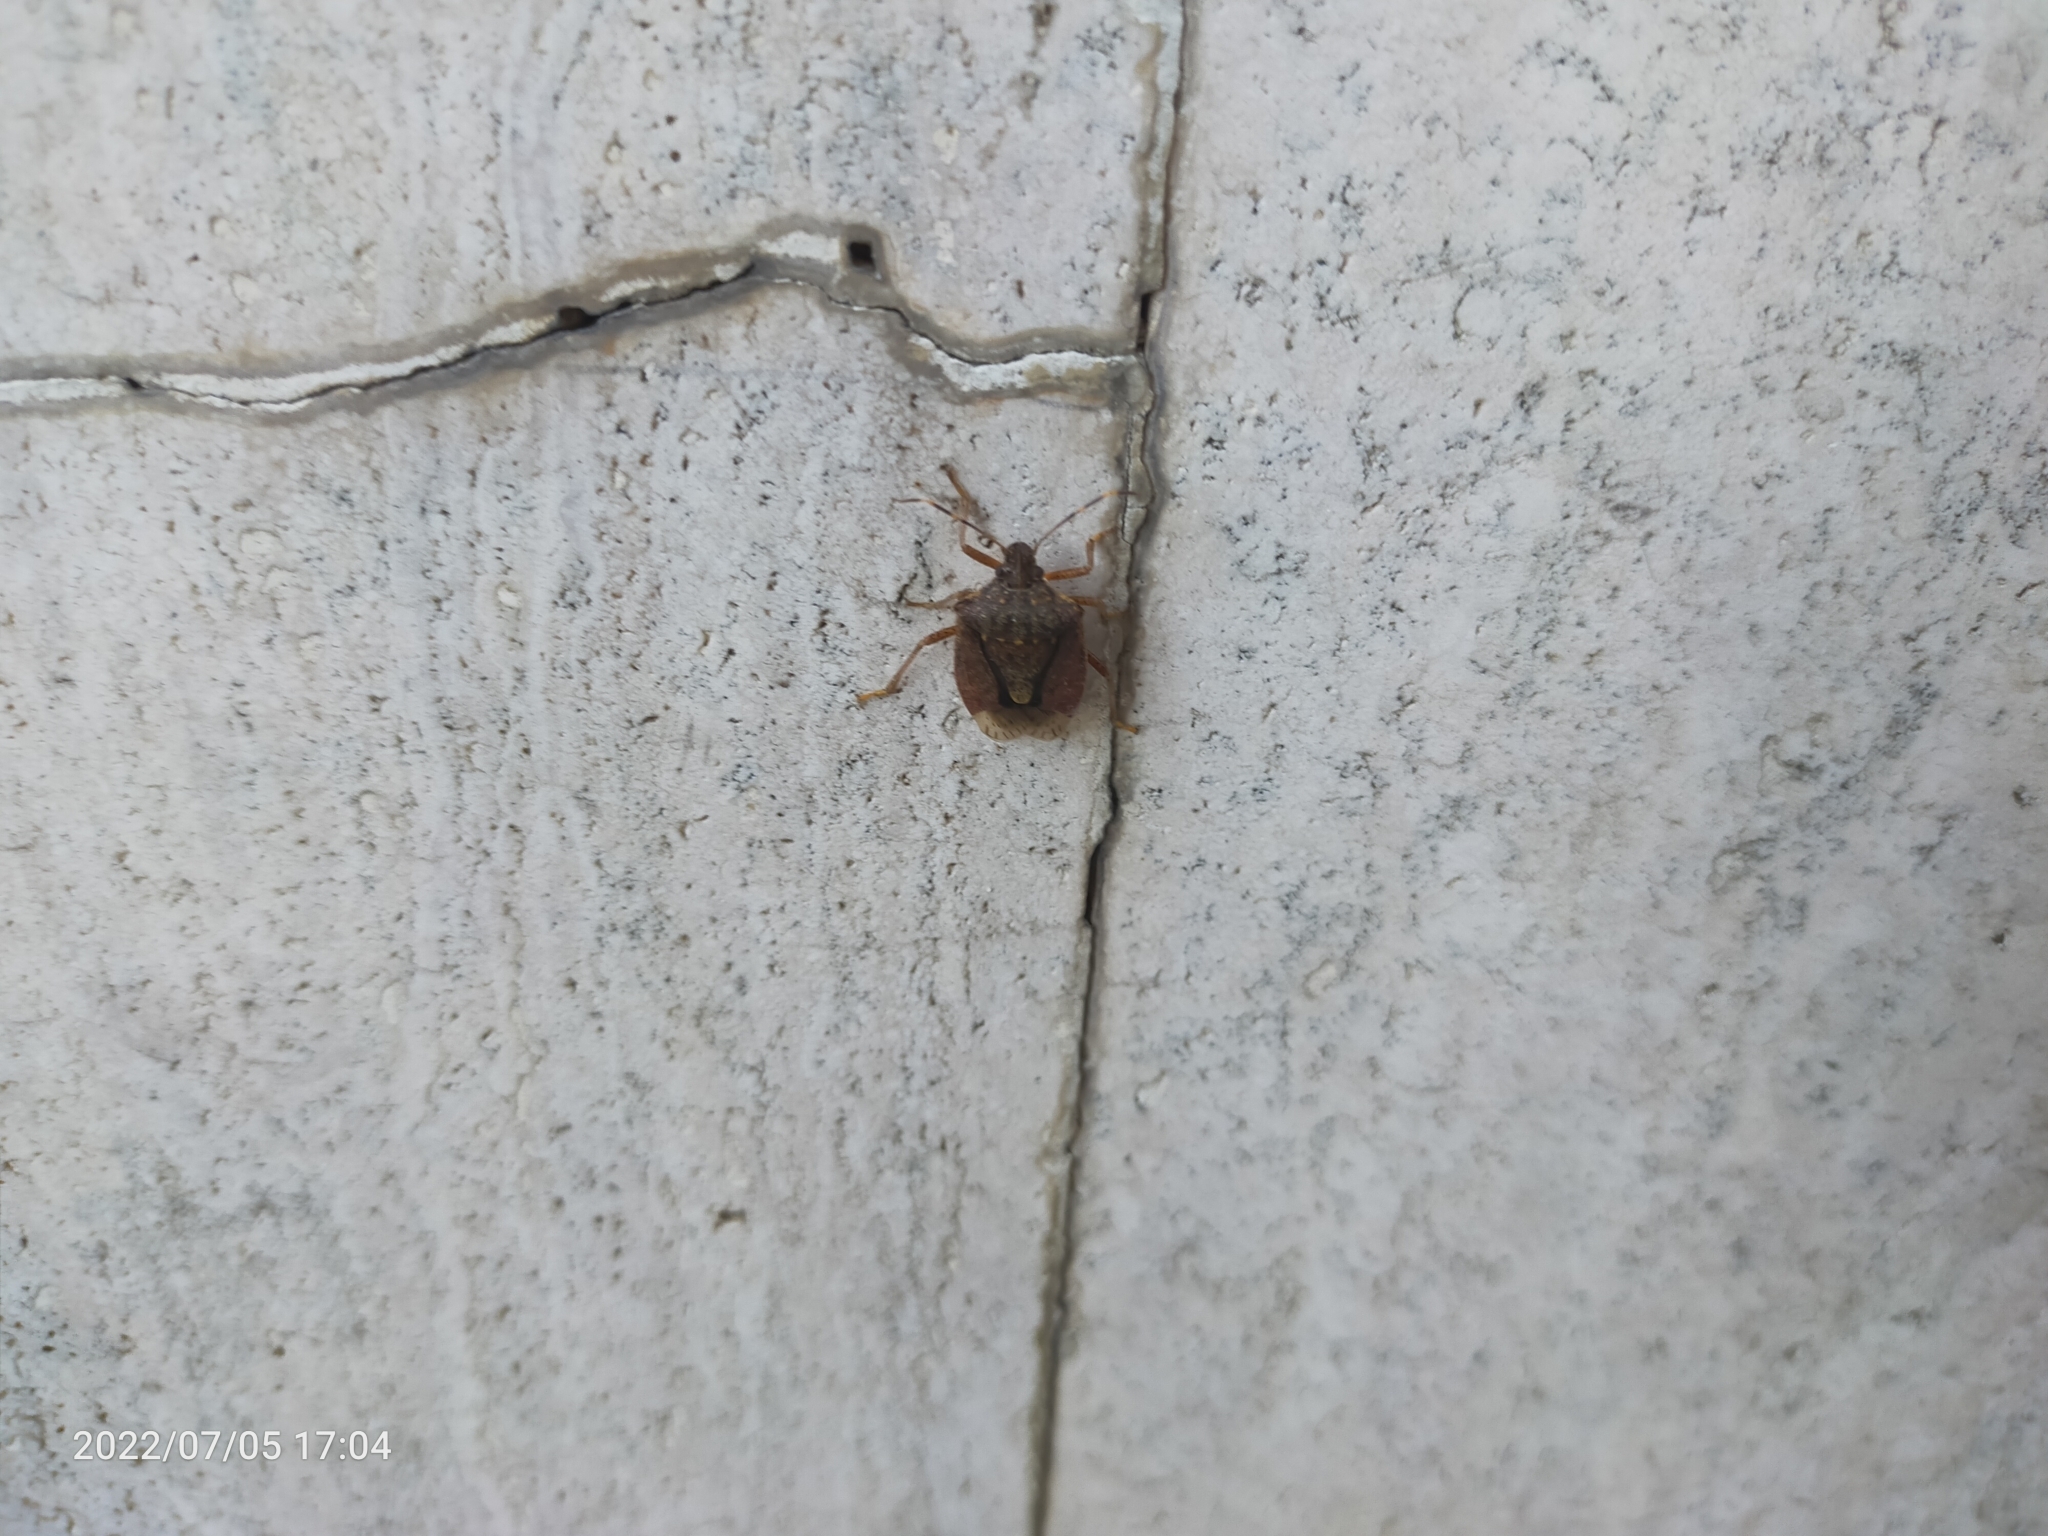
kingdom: Animalia
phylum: Arthropoda
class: Insecta
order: Hemiptera
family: Pentatomidae
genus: Halyomorpha
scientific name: Halyomorpha halys
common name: Brown marmorated stink bug
